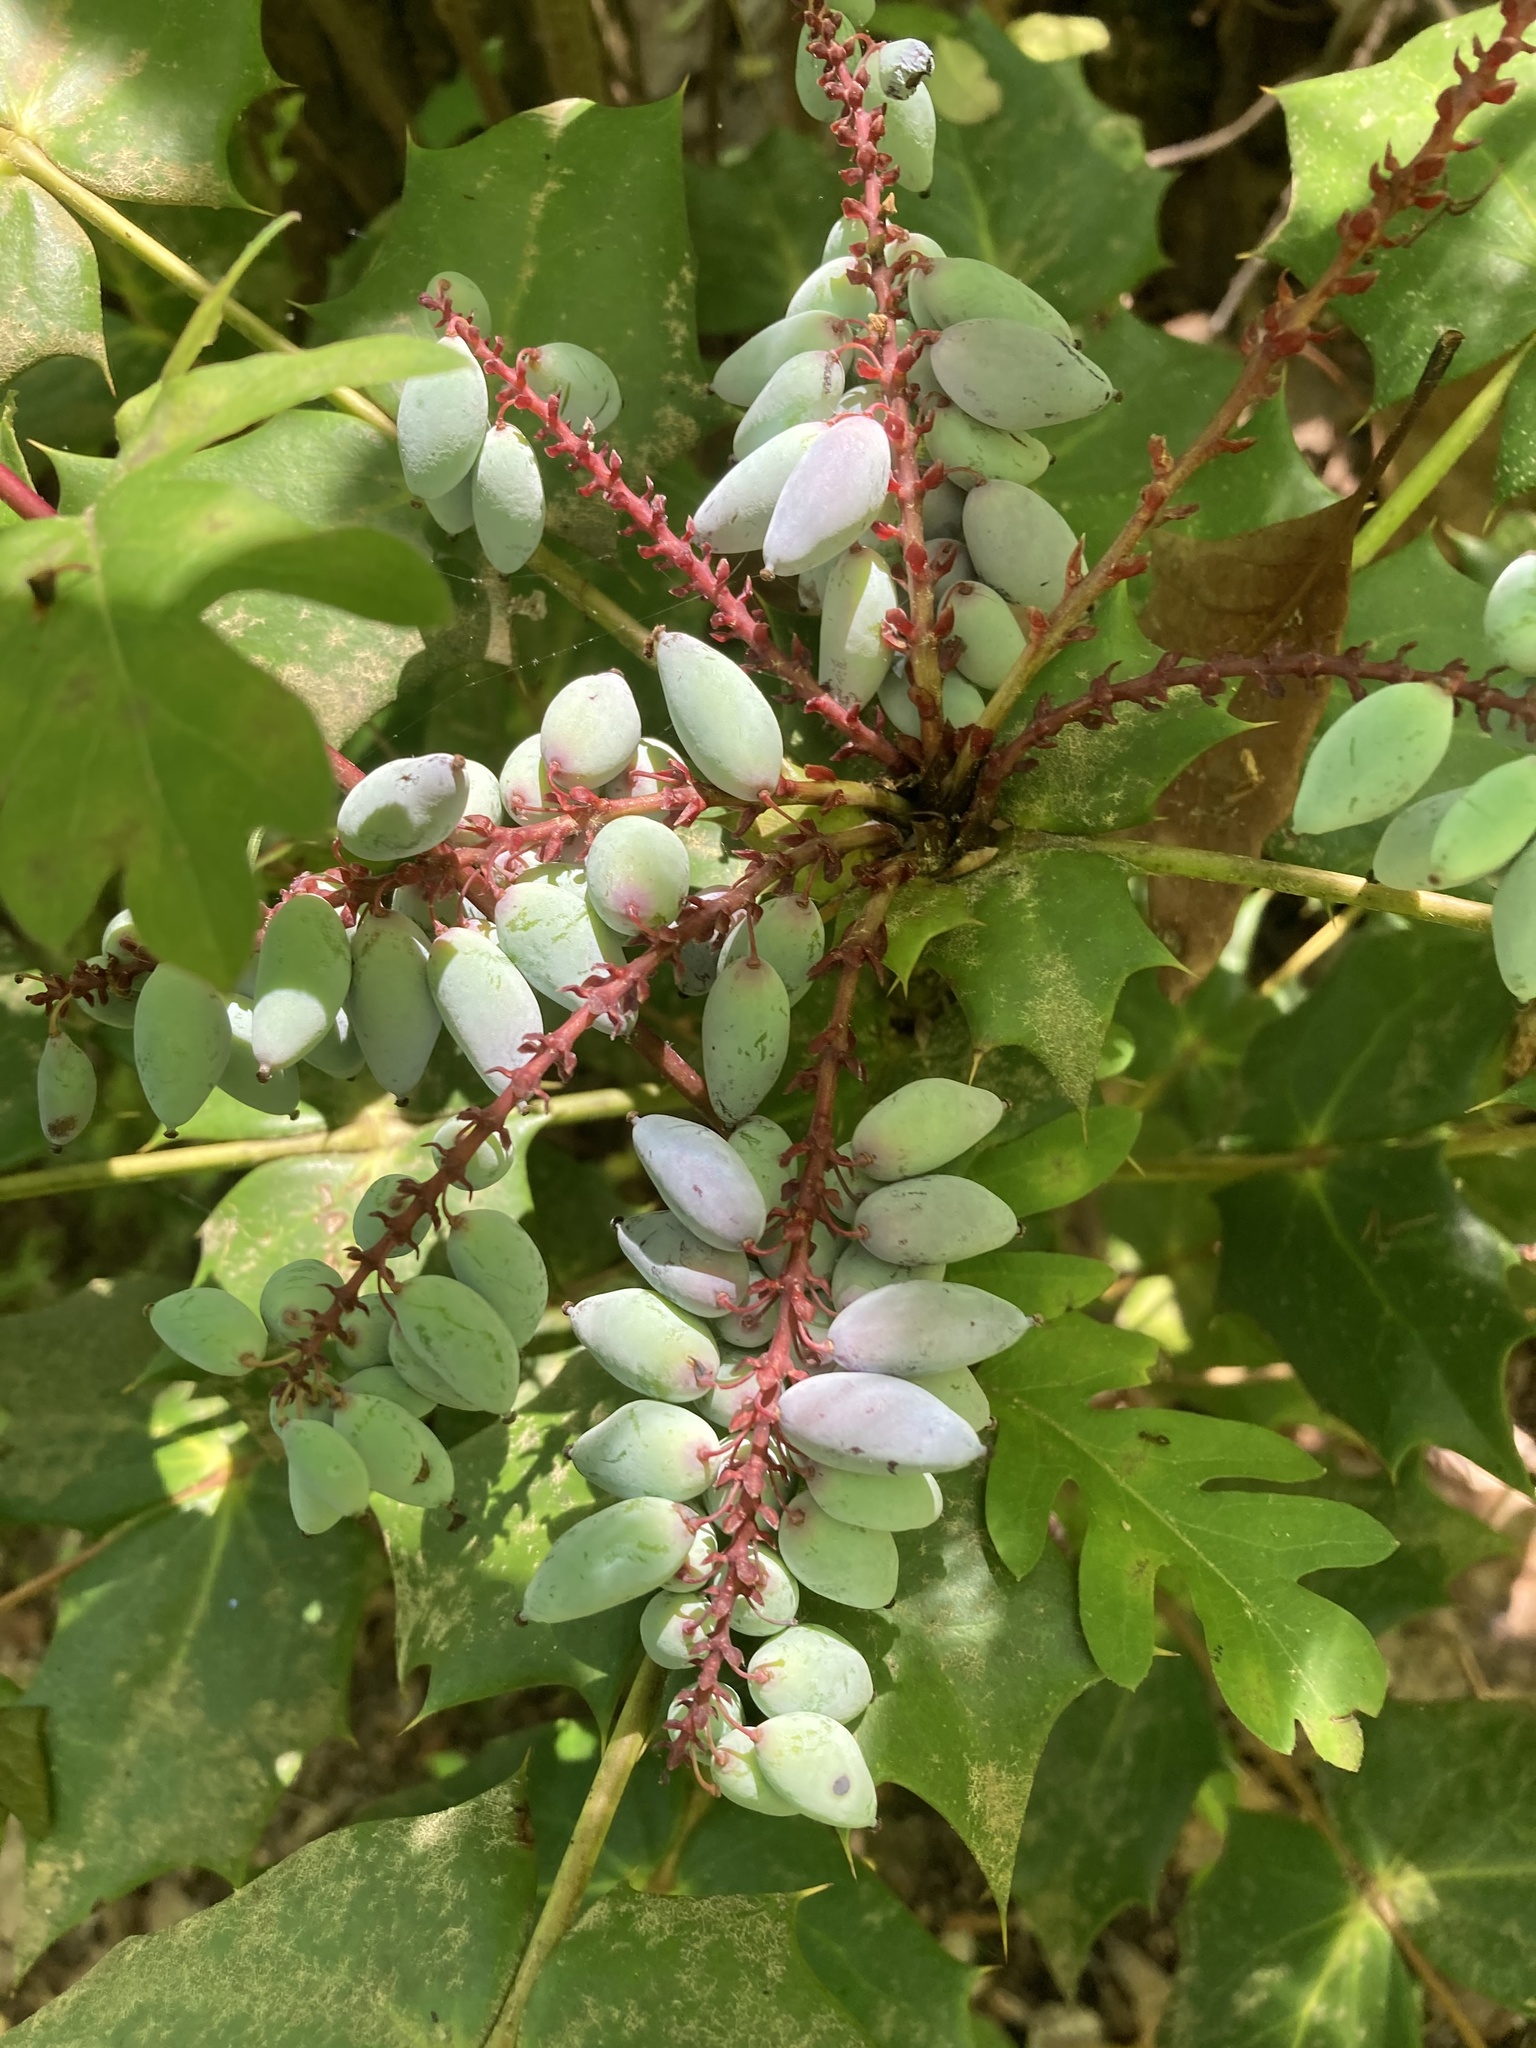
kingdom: Plantae
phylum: Tracheophyta
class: Magnoliopsida
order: Ranunculales
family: Berberidaceae
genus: Mahonia
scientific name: Mahonia bealei
